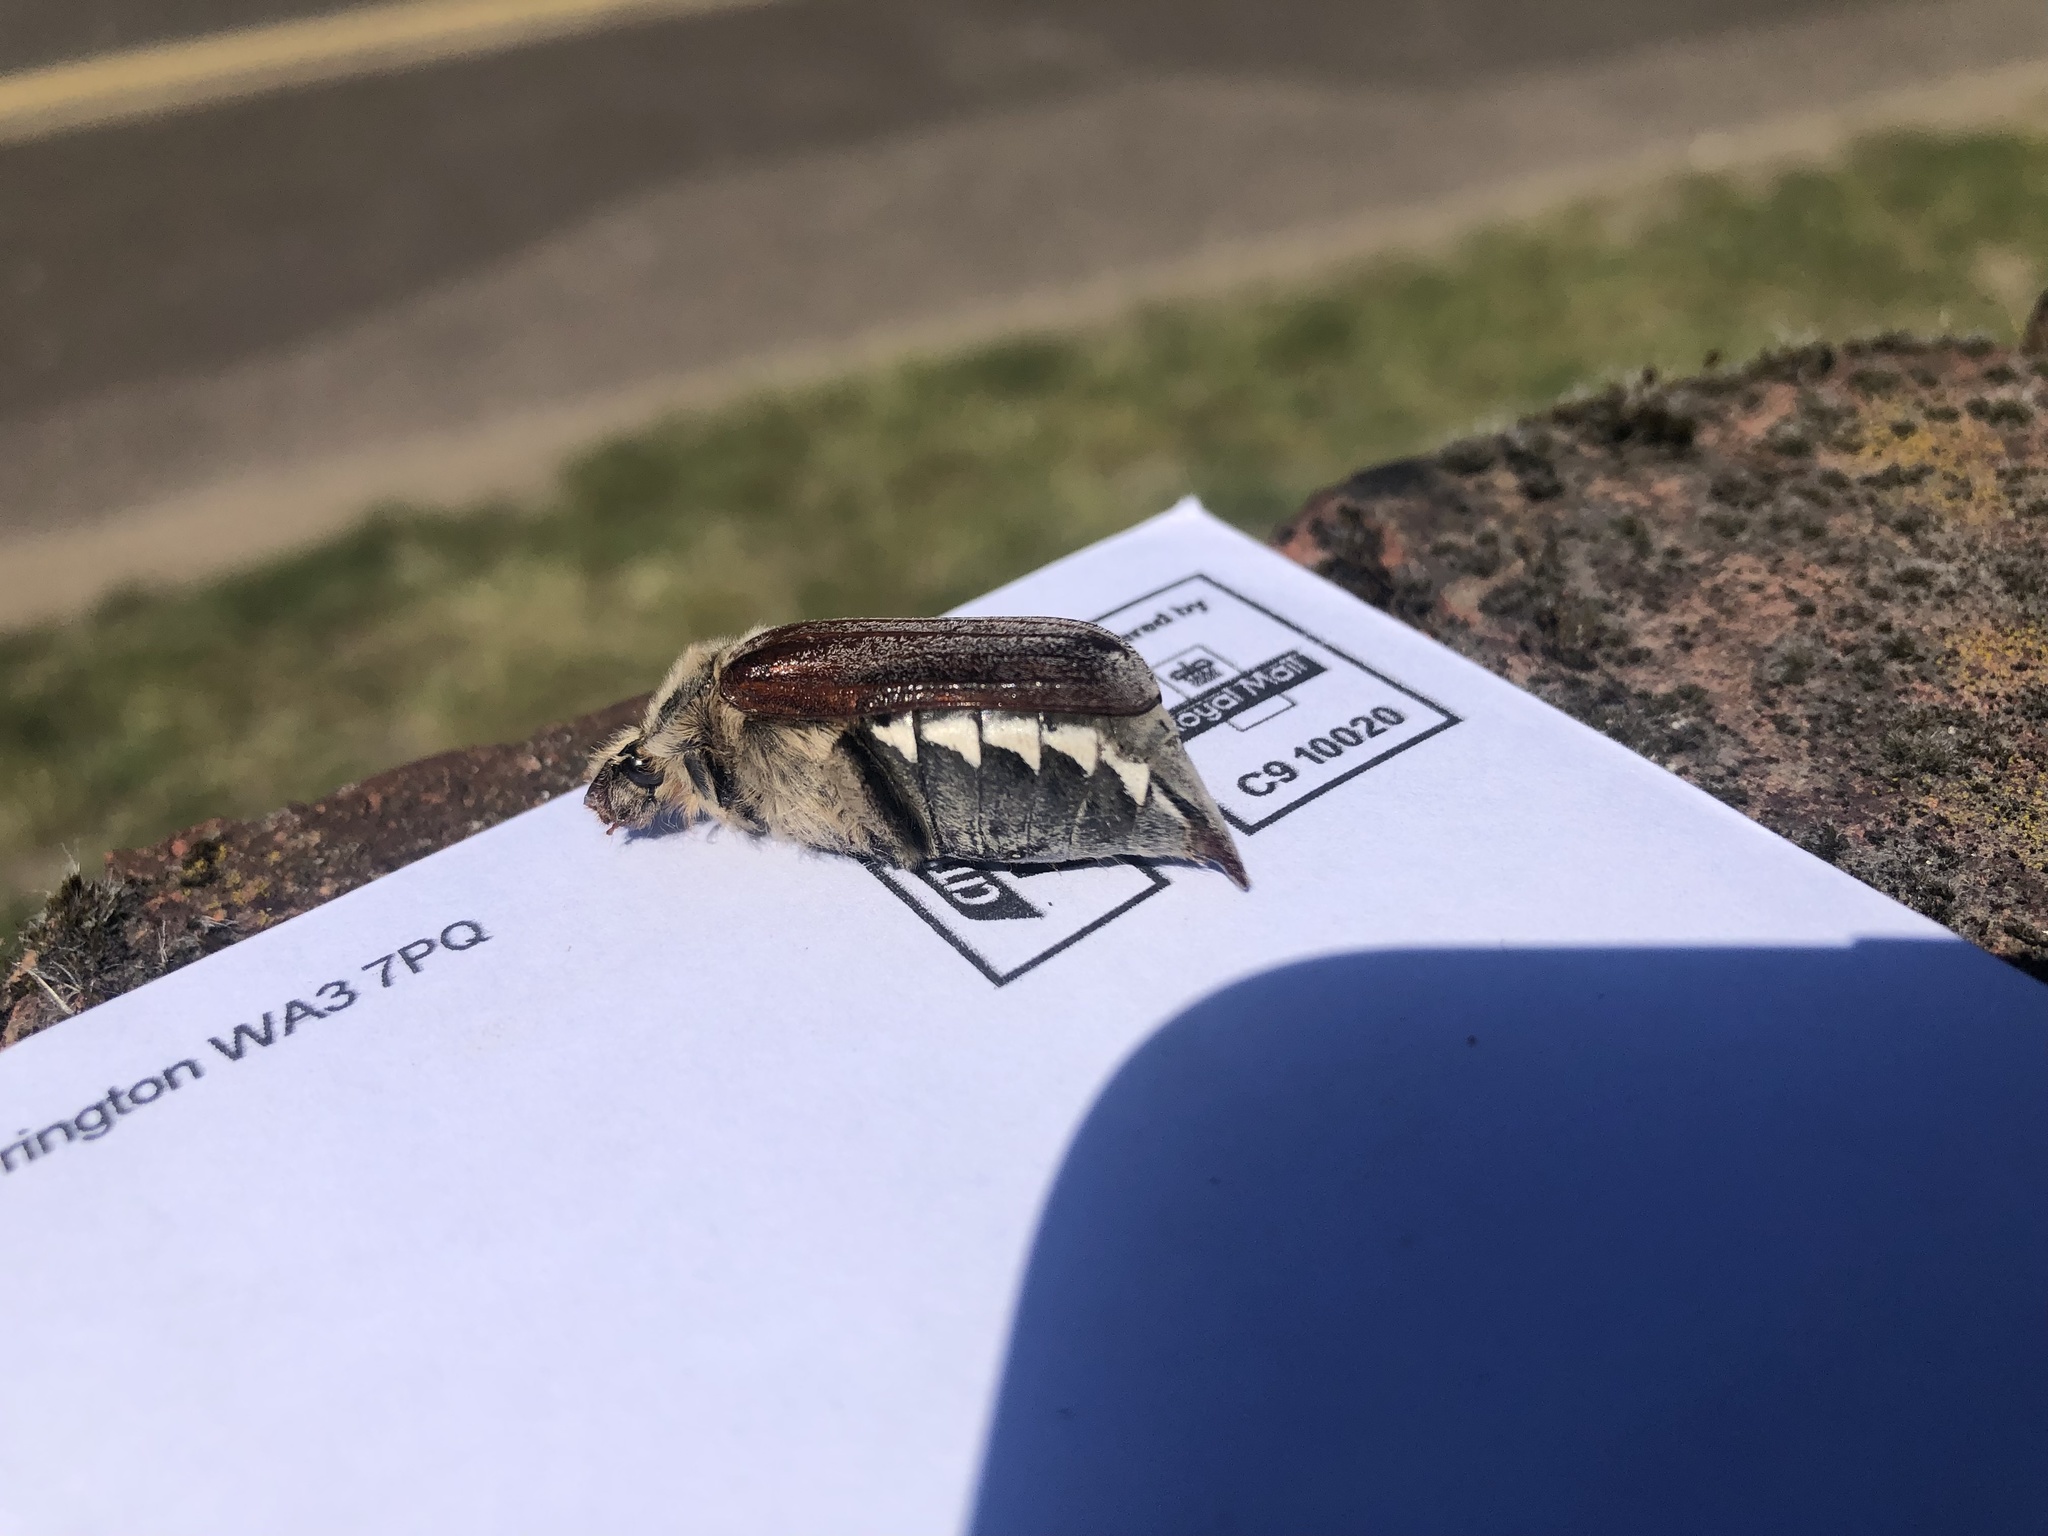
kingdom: Animalia
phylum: Arthropoda
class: Insecta
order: Coleoptera
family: Scarabaeidae
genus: Melolontha
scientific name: Melolontha melolontha
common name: Cockchafer maybeetle
